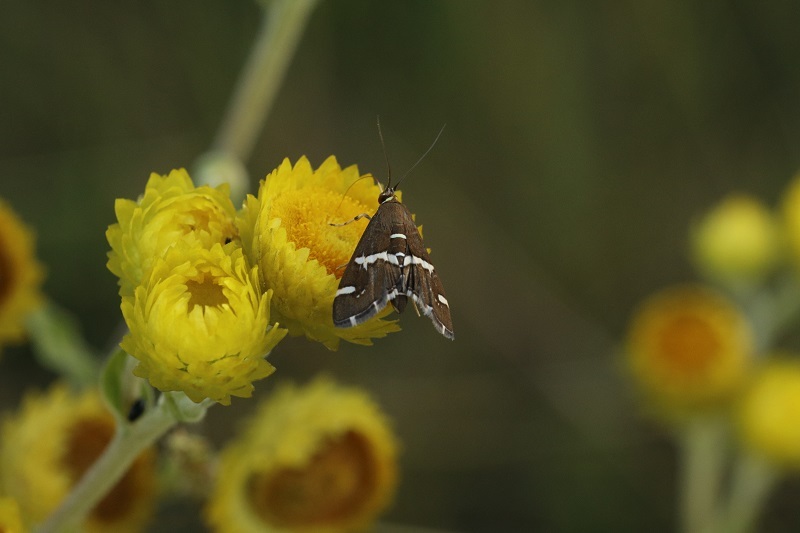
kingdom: Animalia
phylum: Arthropoda
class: Insecta
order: Lepidoptera
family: Crambidae
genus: Spoladea
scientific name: Spoladea recurvalis
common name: Beet webworm moth
